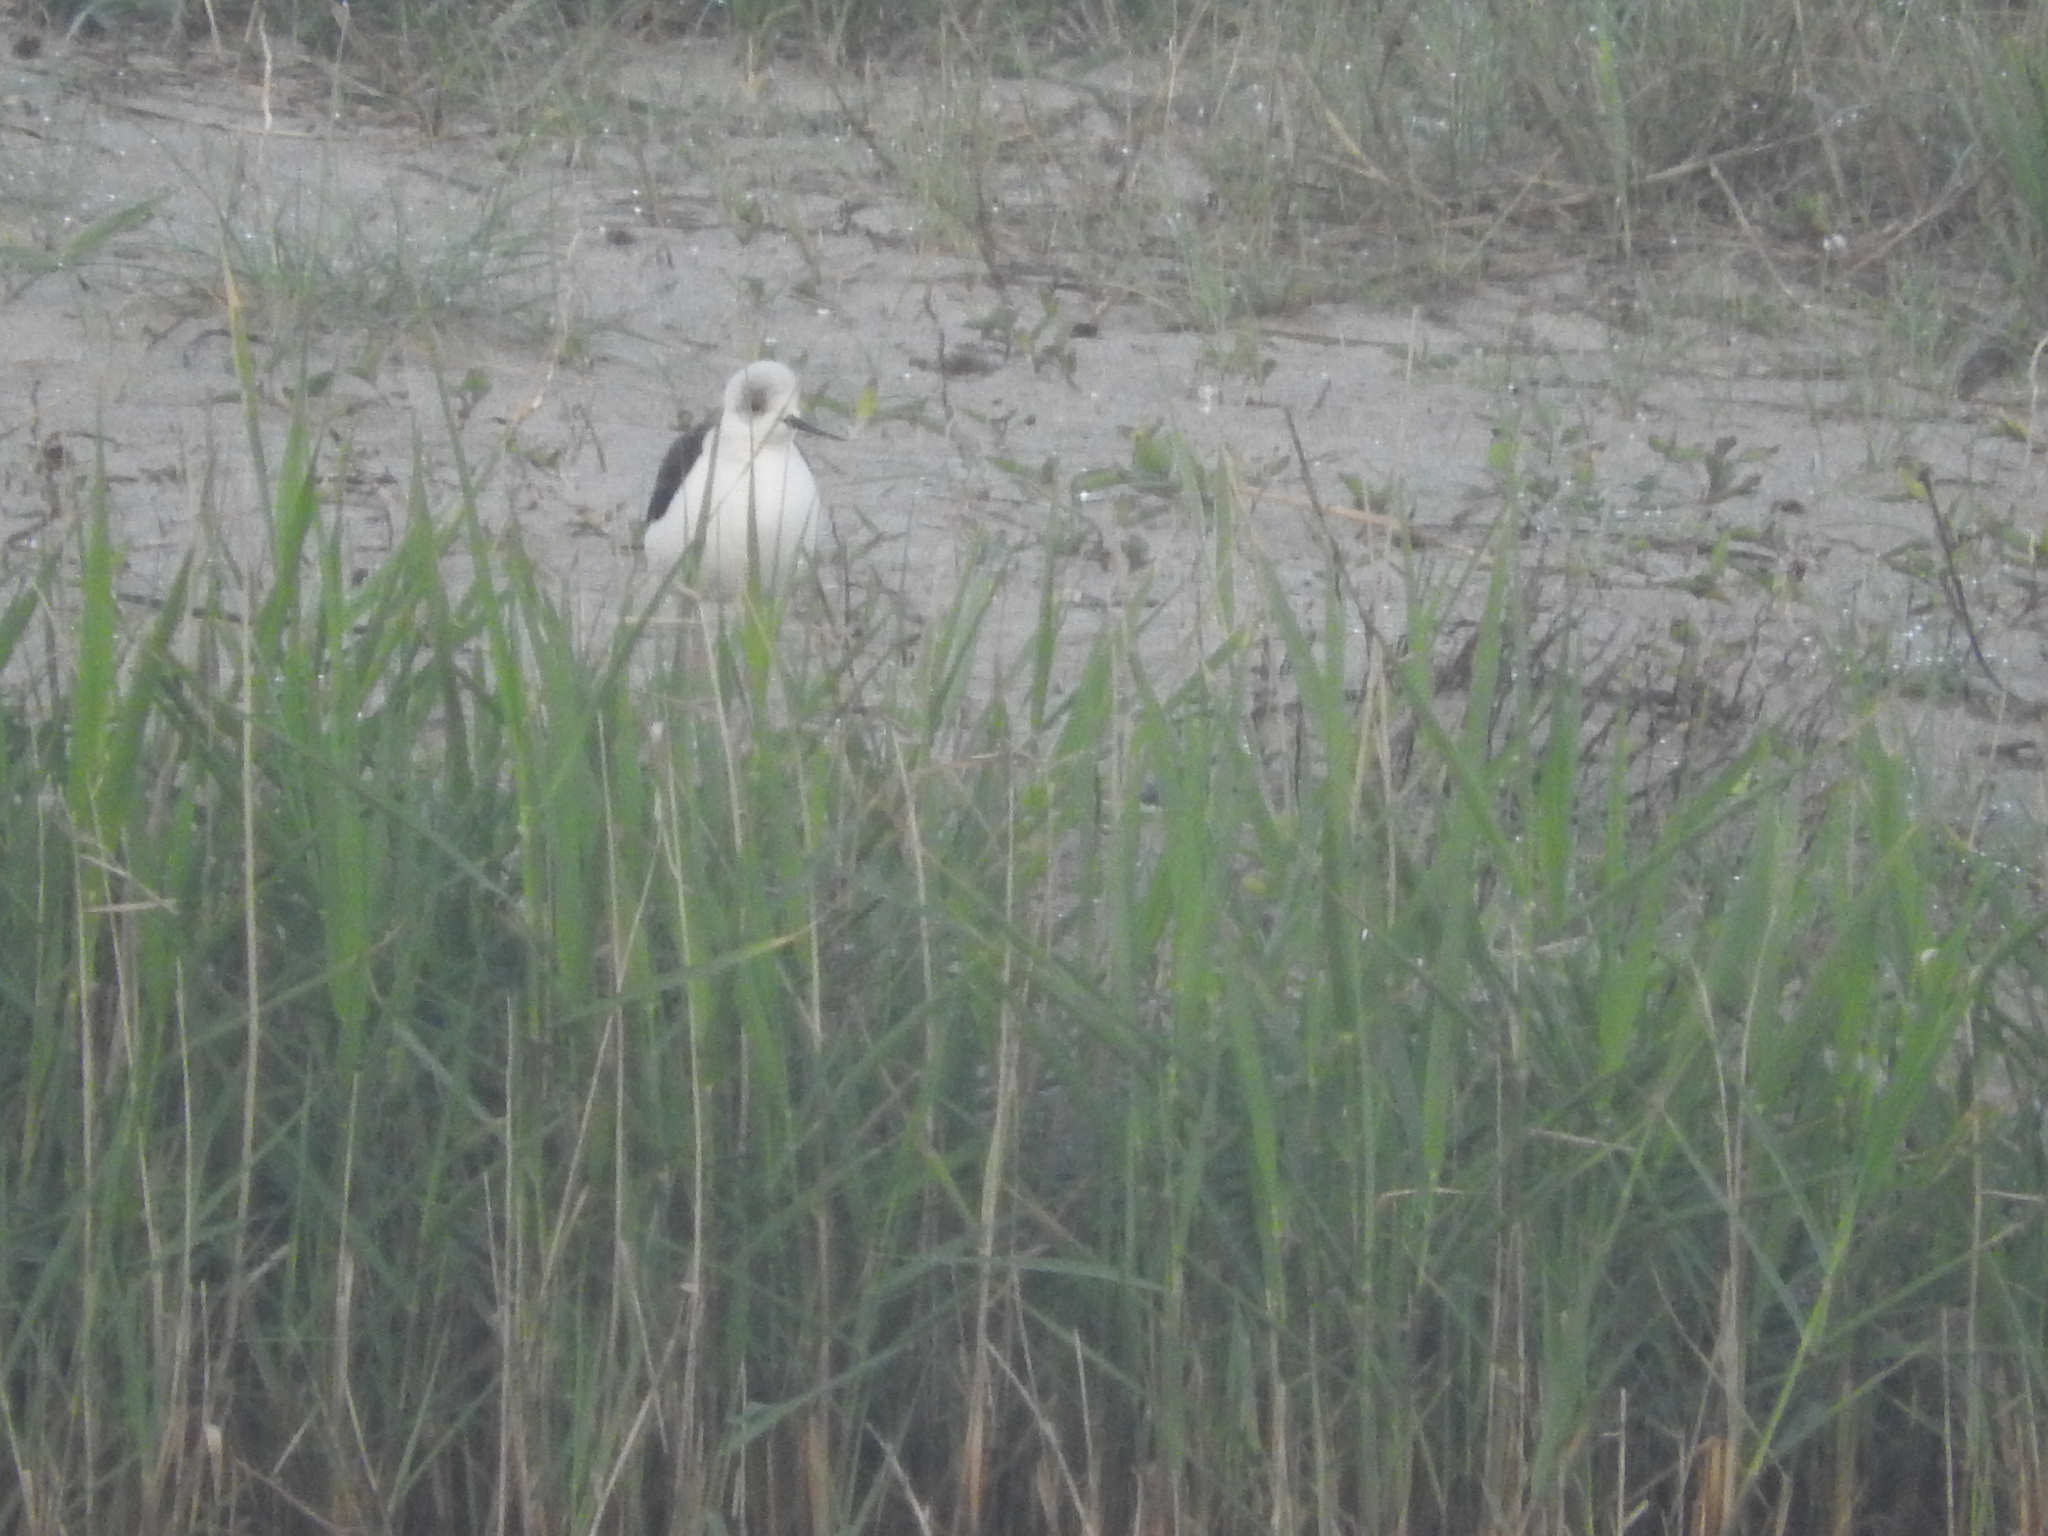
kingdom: Animalia
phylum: Chordata
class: Aves
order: Charadriiformes
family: Recurvirostridae
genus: Himantopus
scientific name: Himantopus himantopus
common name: Black-winged stilt
